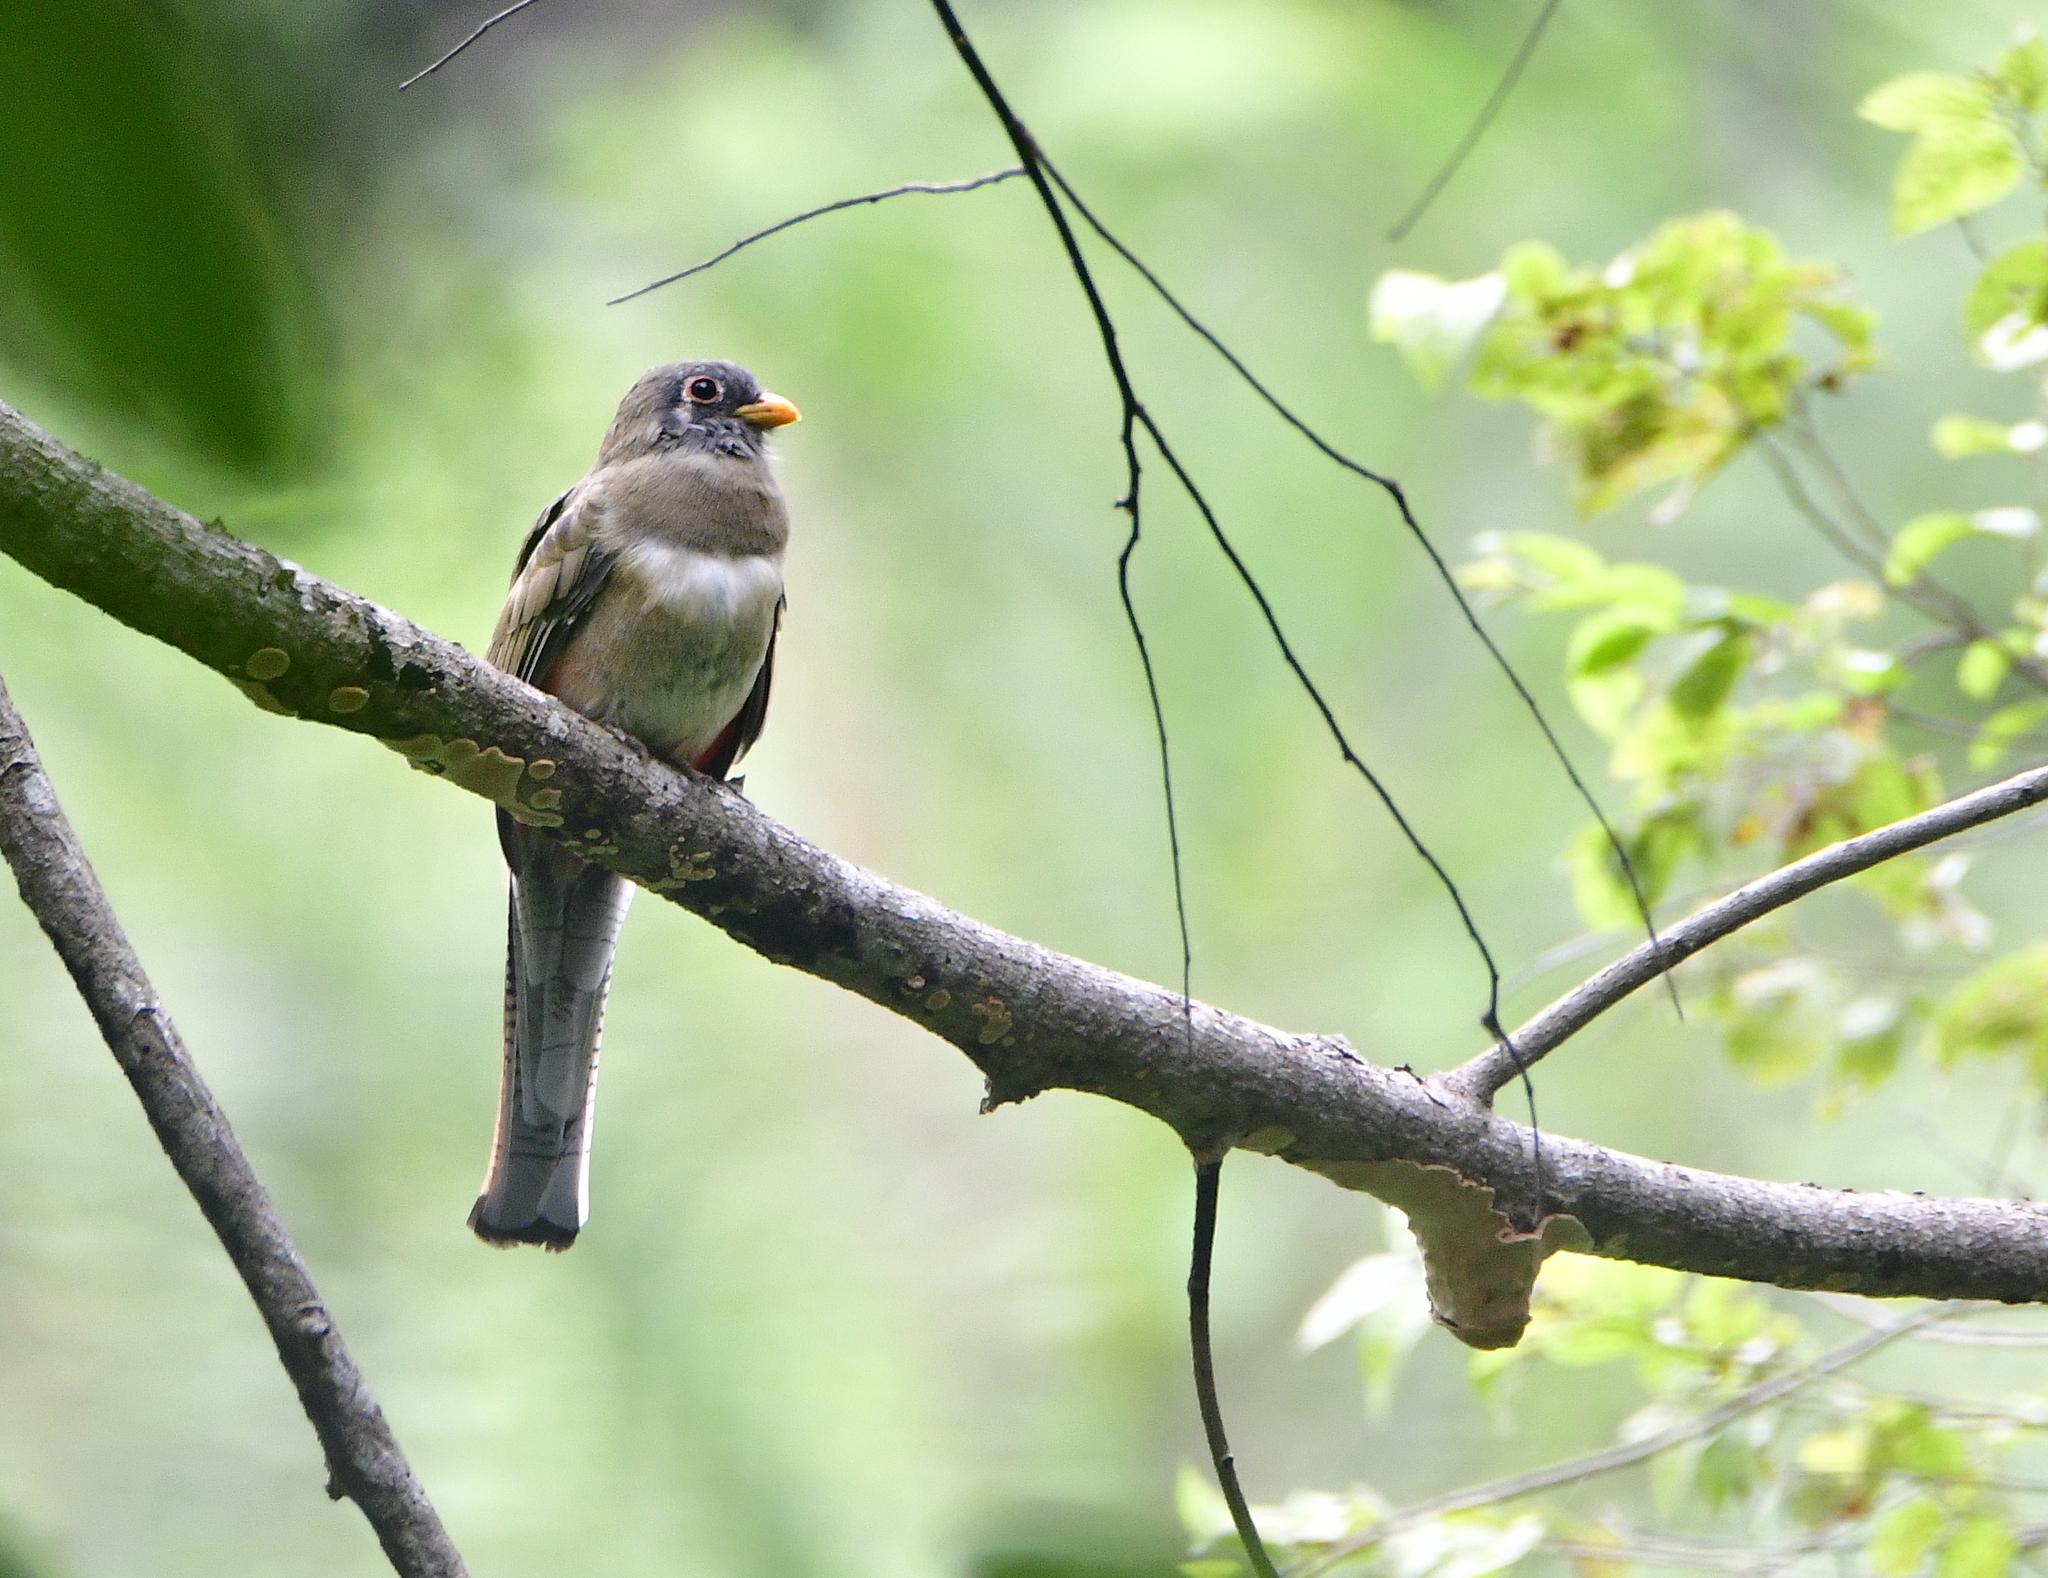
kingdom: Animalia
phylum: Chordata
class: Aves
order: Trogoniformes
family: Trogonidae
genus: Trogon
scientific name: Trogon elegans
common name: Elegant trogon
